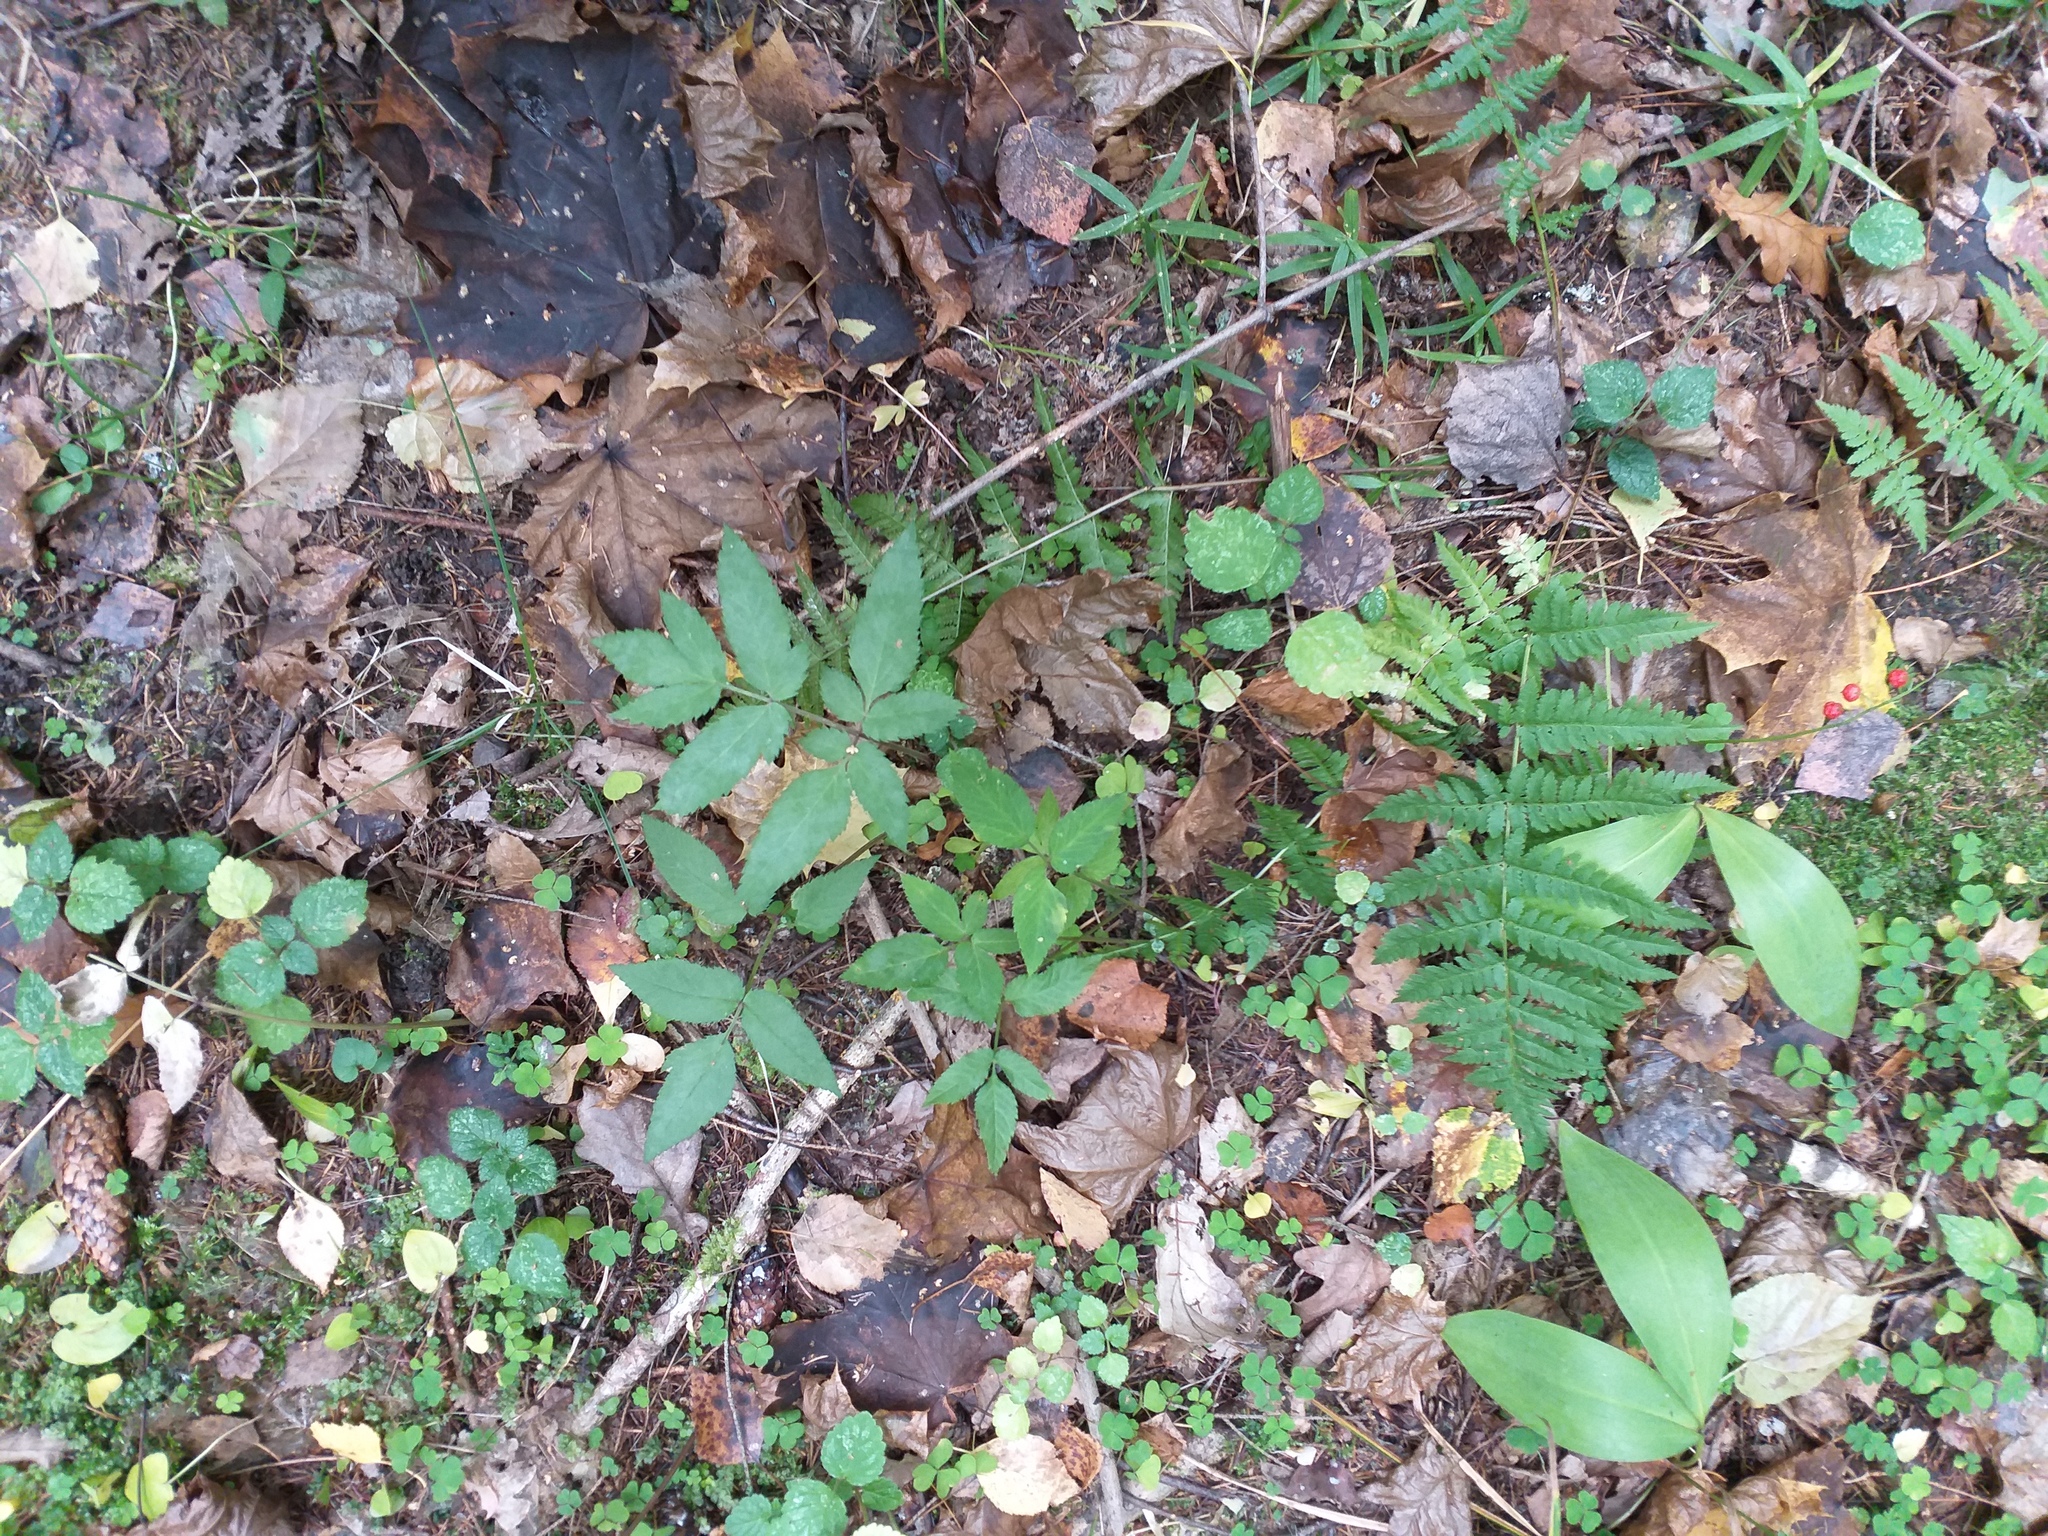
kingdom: Plantae
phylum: Tracheophyta
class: Magnoliopsida
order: Apiales
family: Apiaceae
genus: Angelica
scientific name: Angelica sylvestris
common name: Wild angelica
